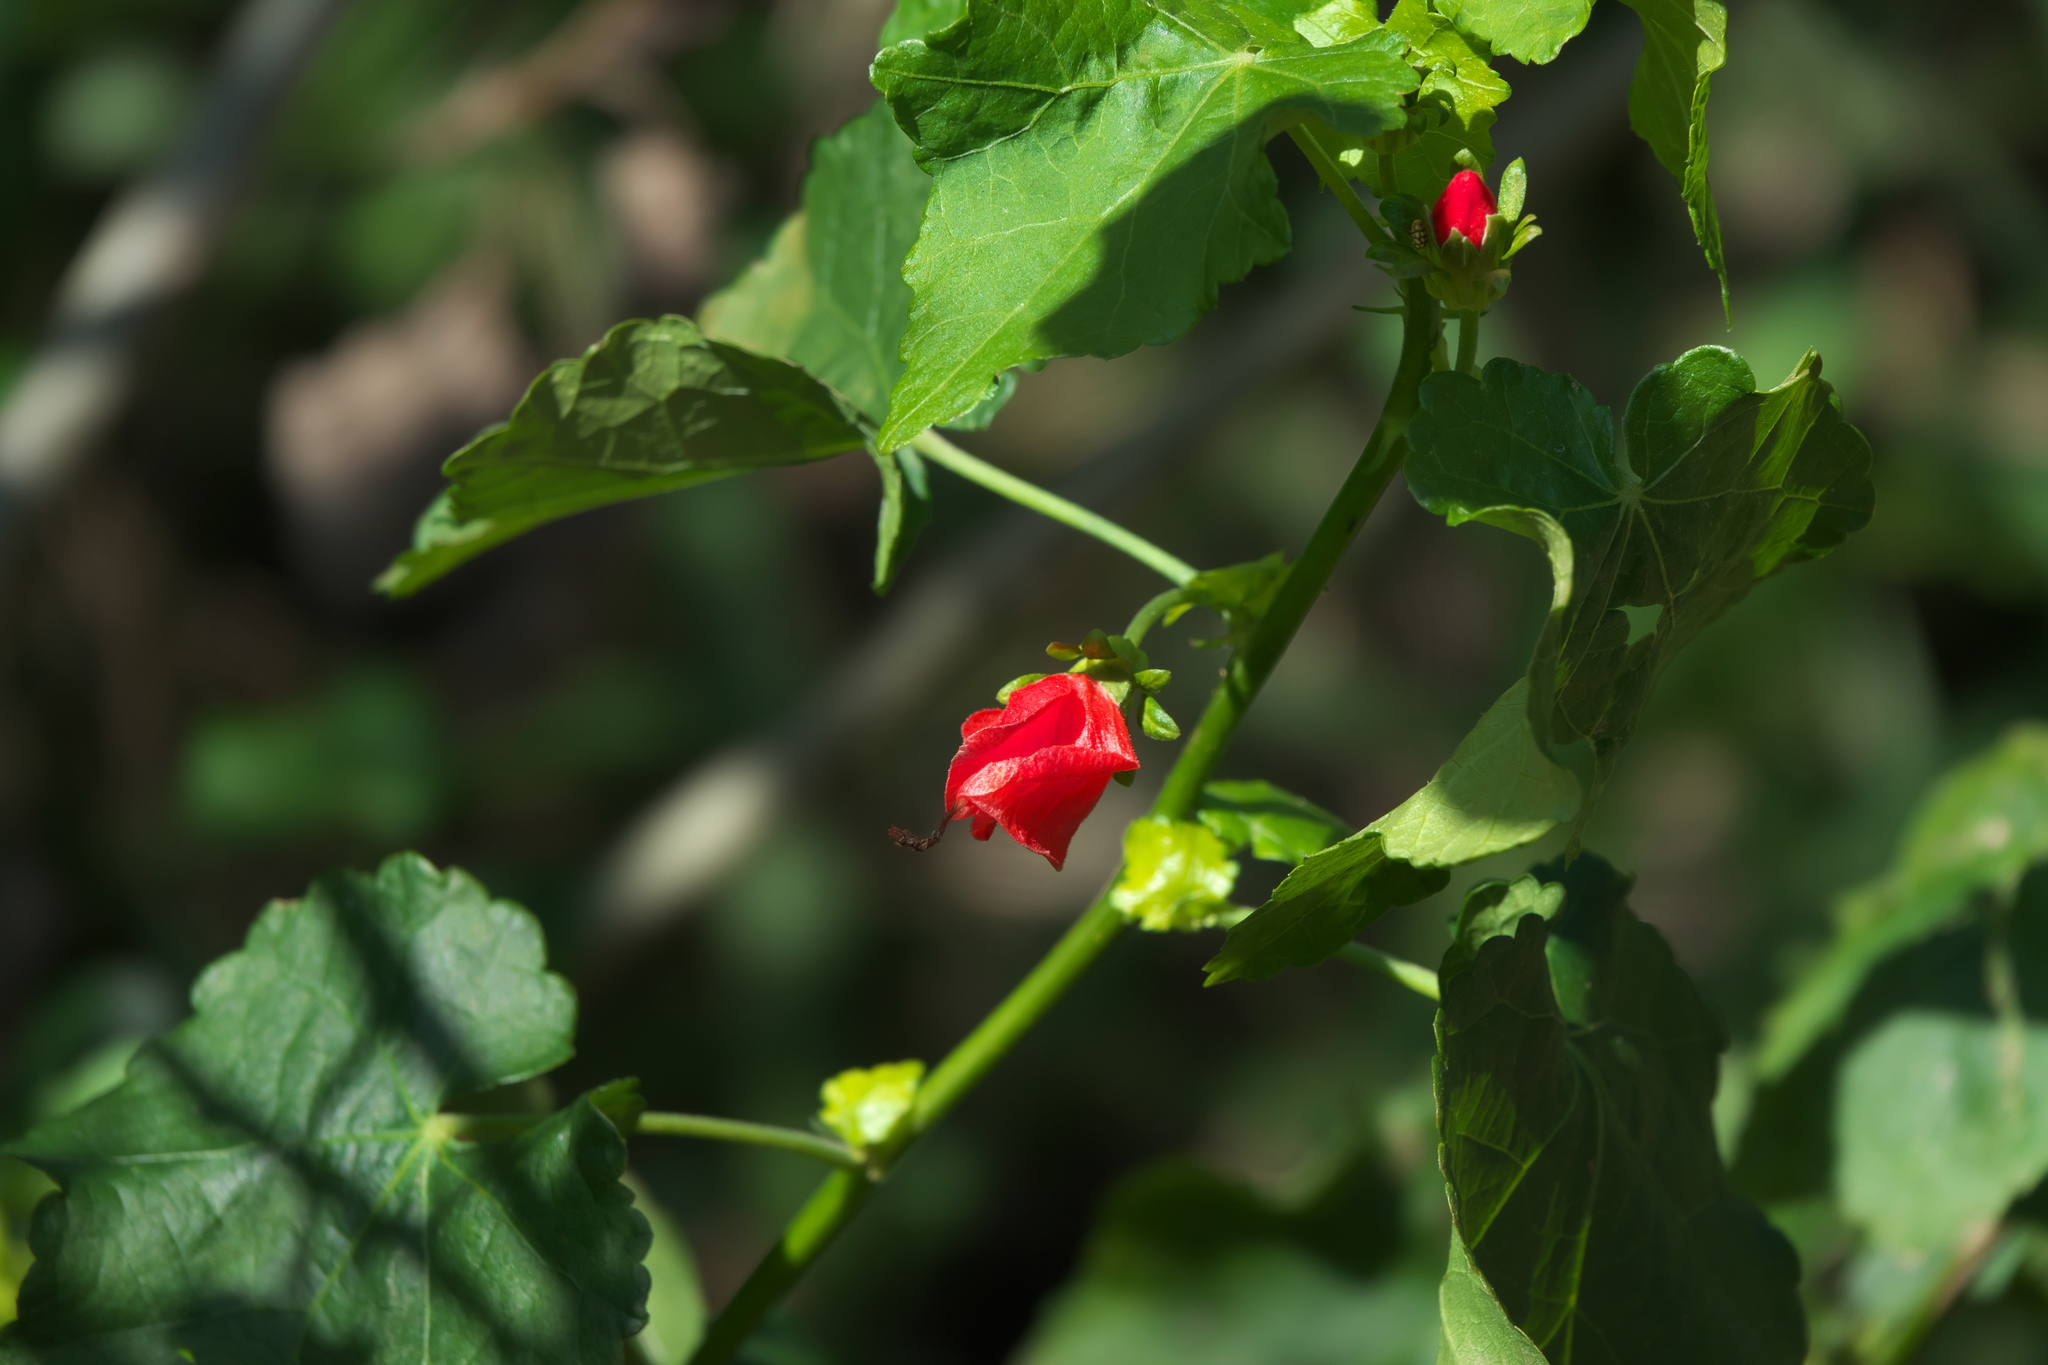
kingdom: Plantae
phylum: Tracheophyta
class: Magnoliopsida
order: Malvales
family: Malvaceae
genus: Malvaviscus
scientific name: Malvaviscus arboreus
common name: Wax mallow
